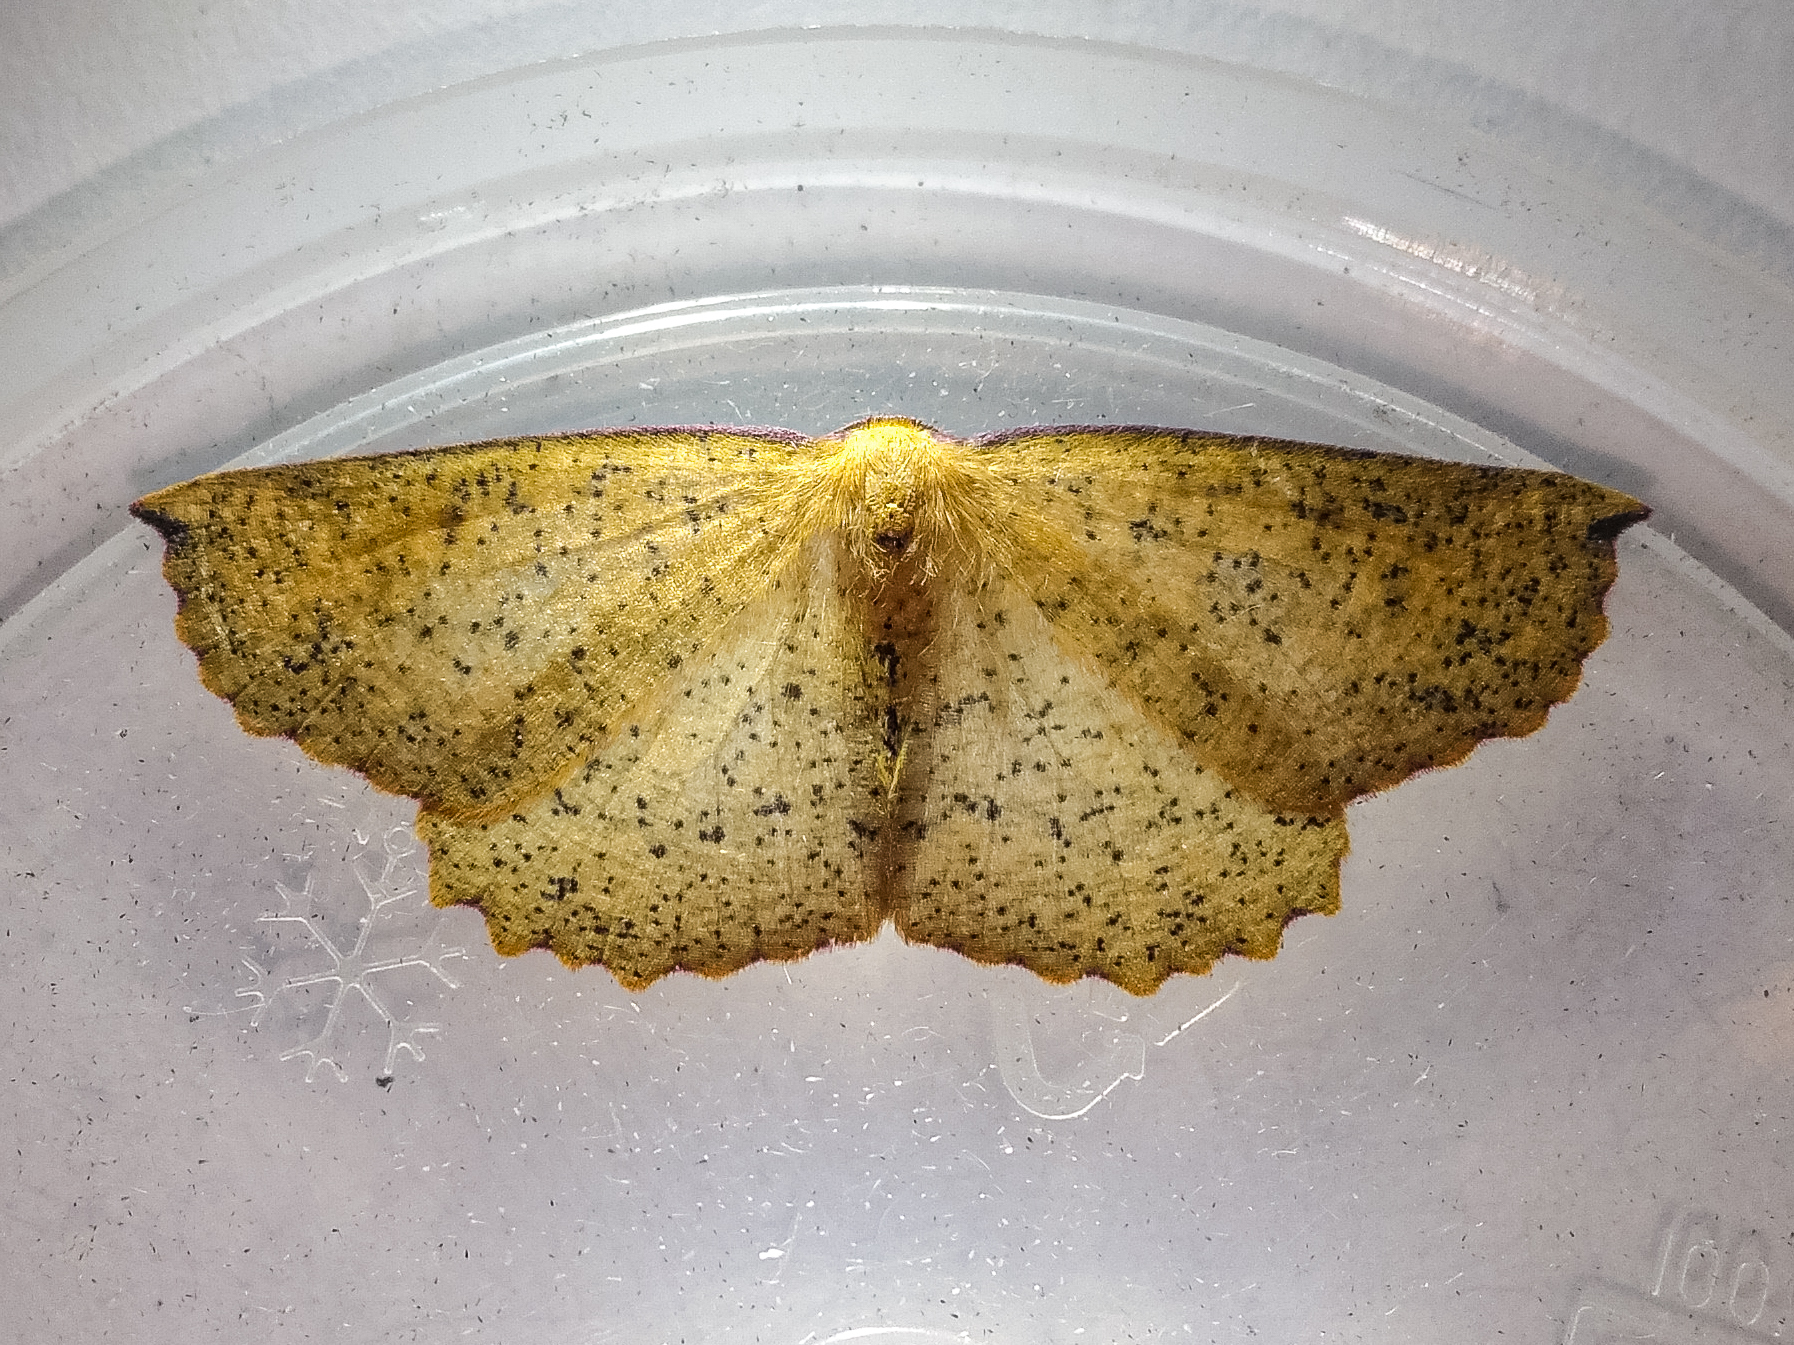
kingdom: Animalia
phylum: Arthropoda
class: Insecta
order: Lepidoptera
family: Geometridae
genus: Xyridacma
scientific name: Xyridacma alectoraria
